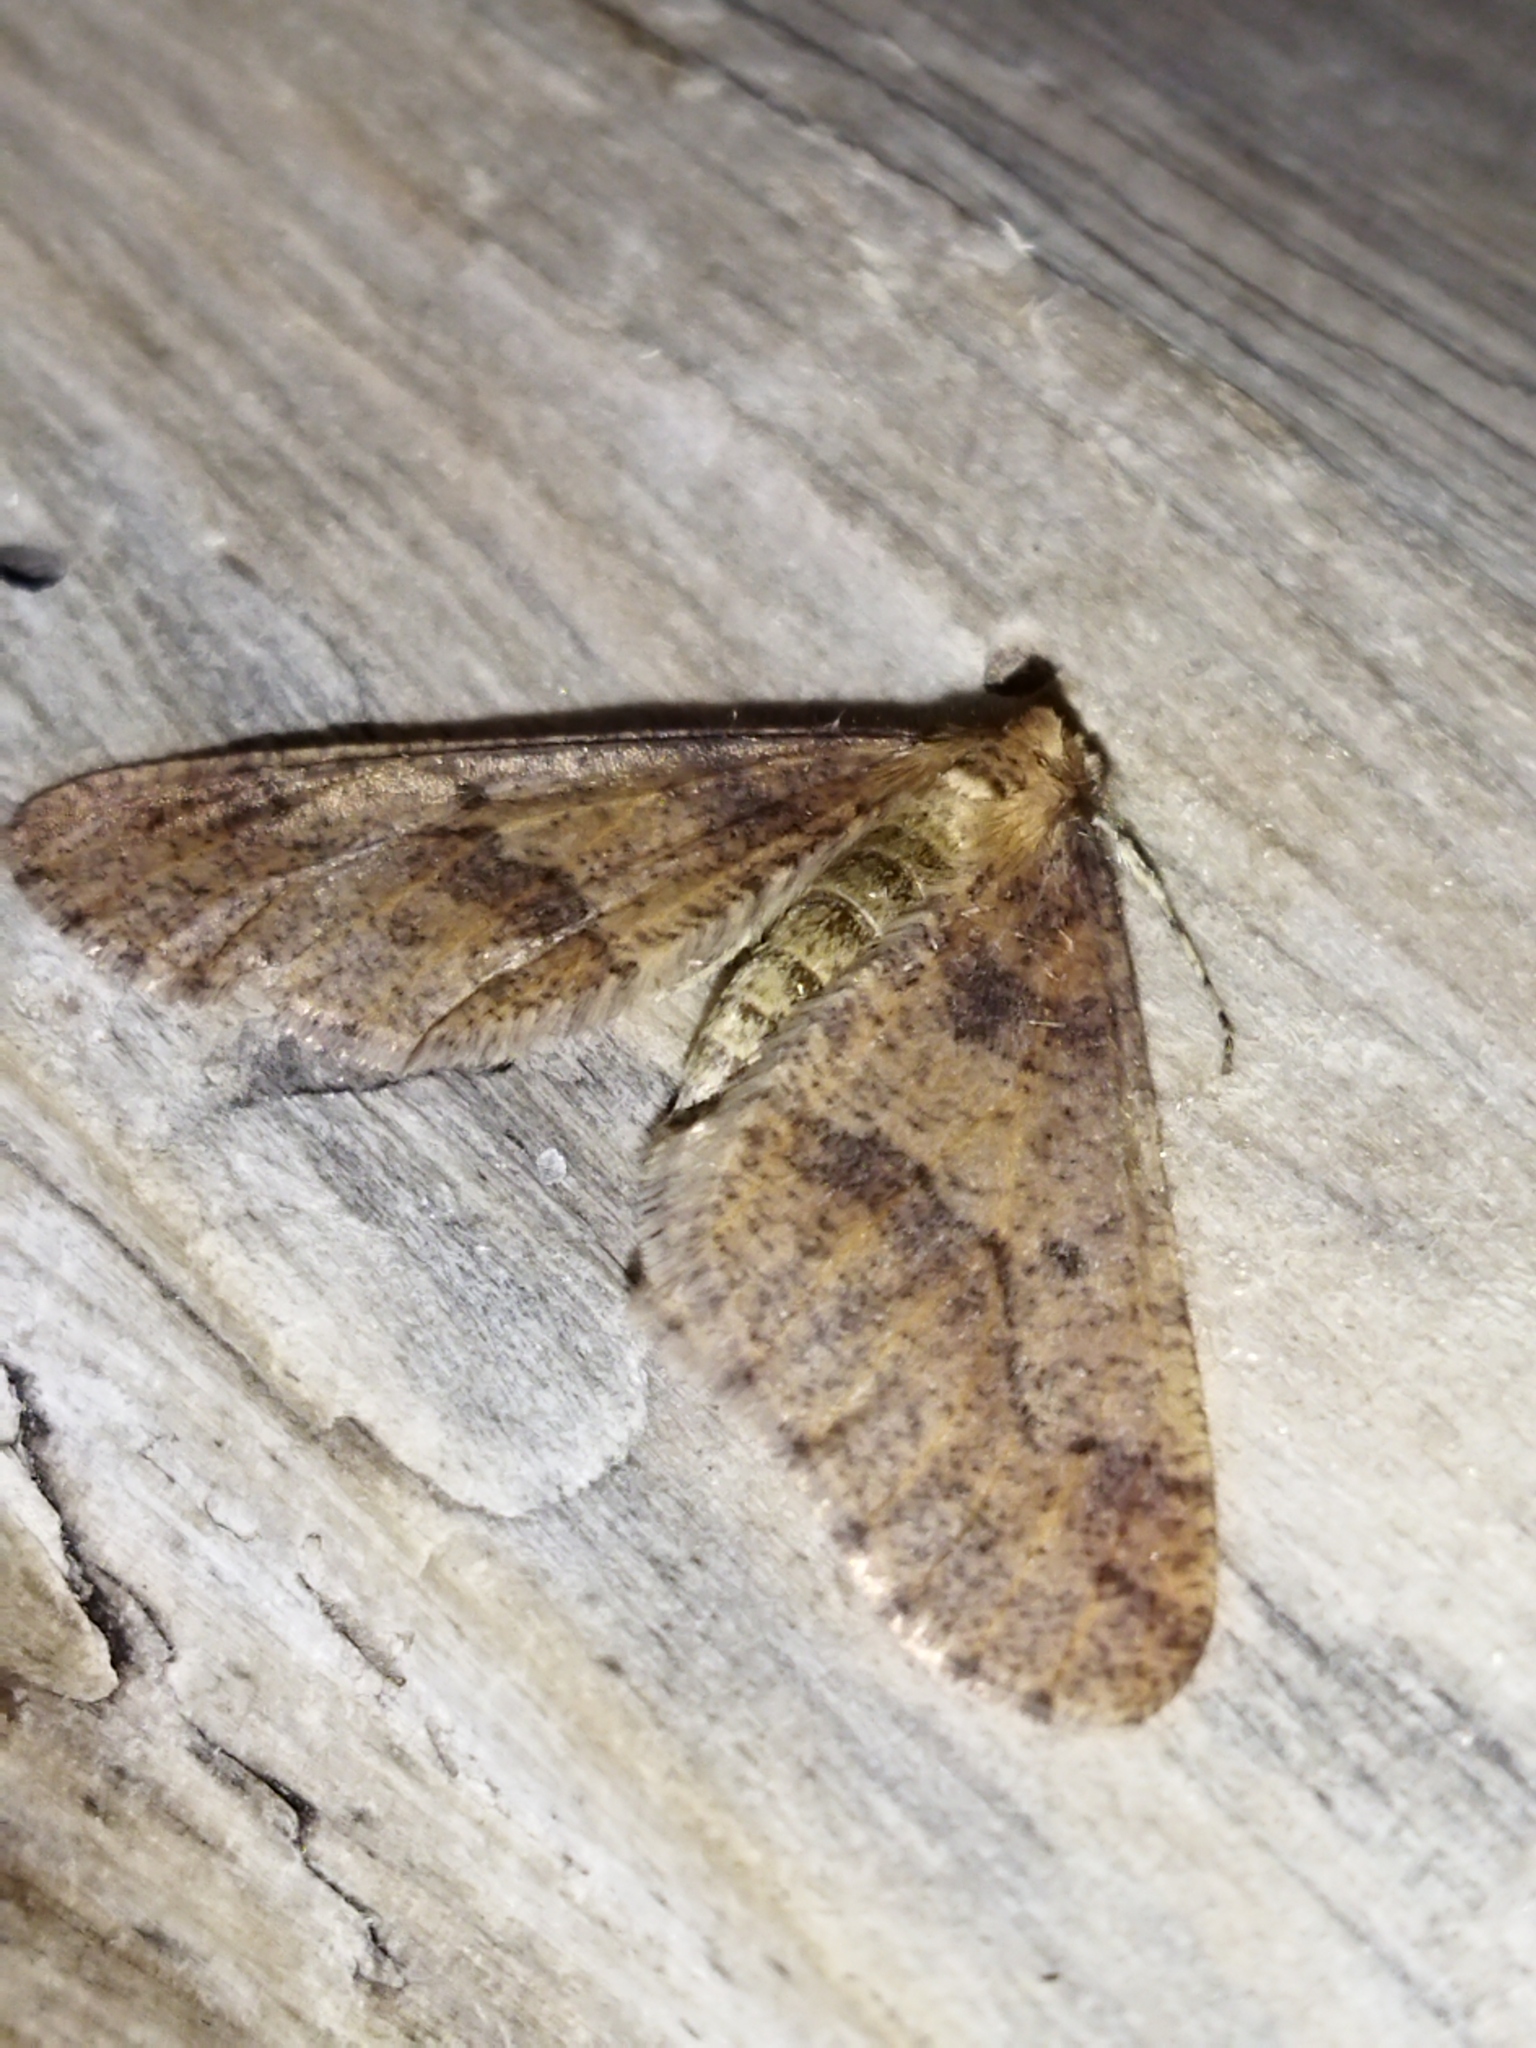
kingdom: Animalia
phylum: Arthropoda
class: Insecta
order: Lepidoptera
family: Geometridae
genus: Erannis
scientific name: Erannis defoliaria
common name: Mottled umber
